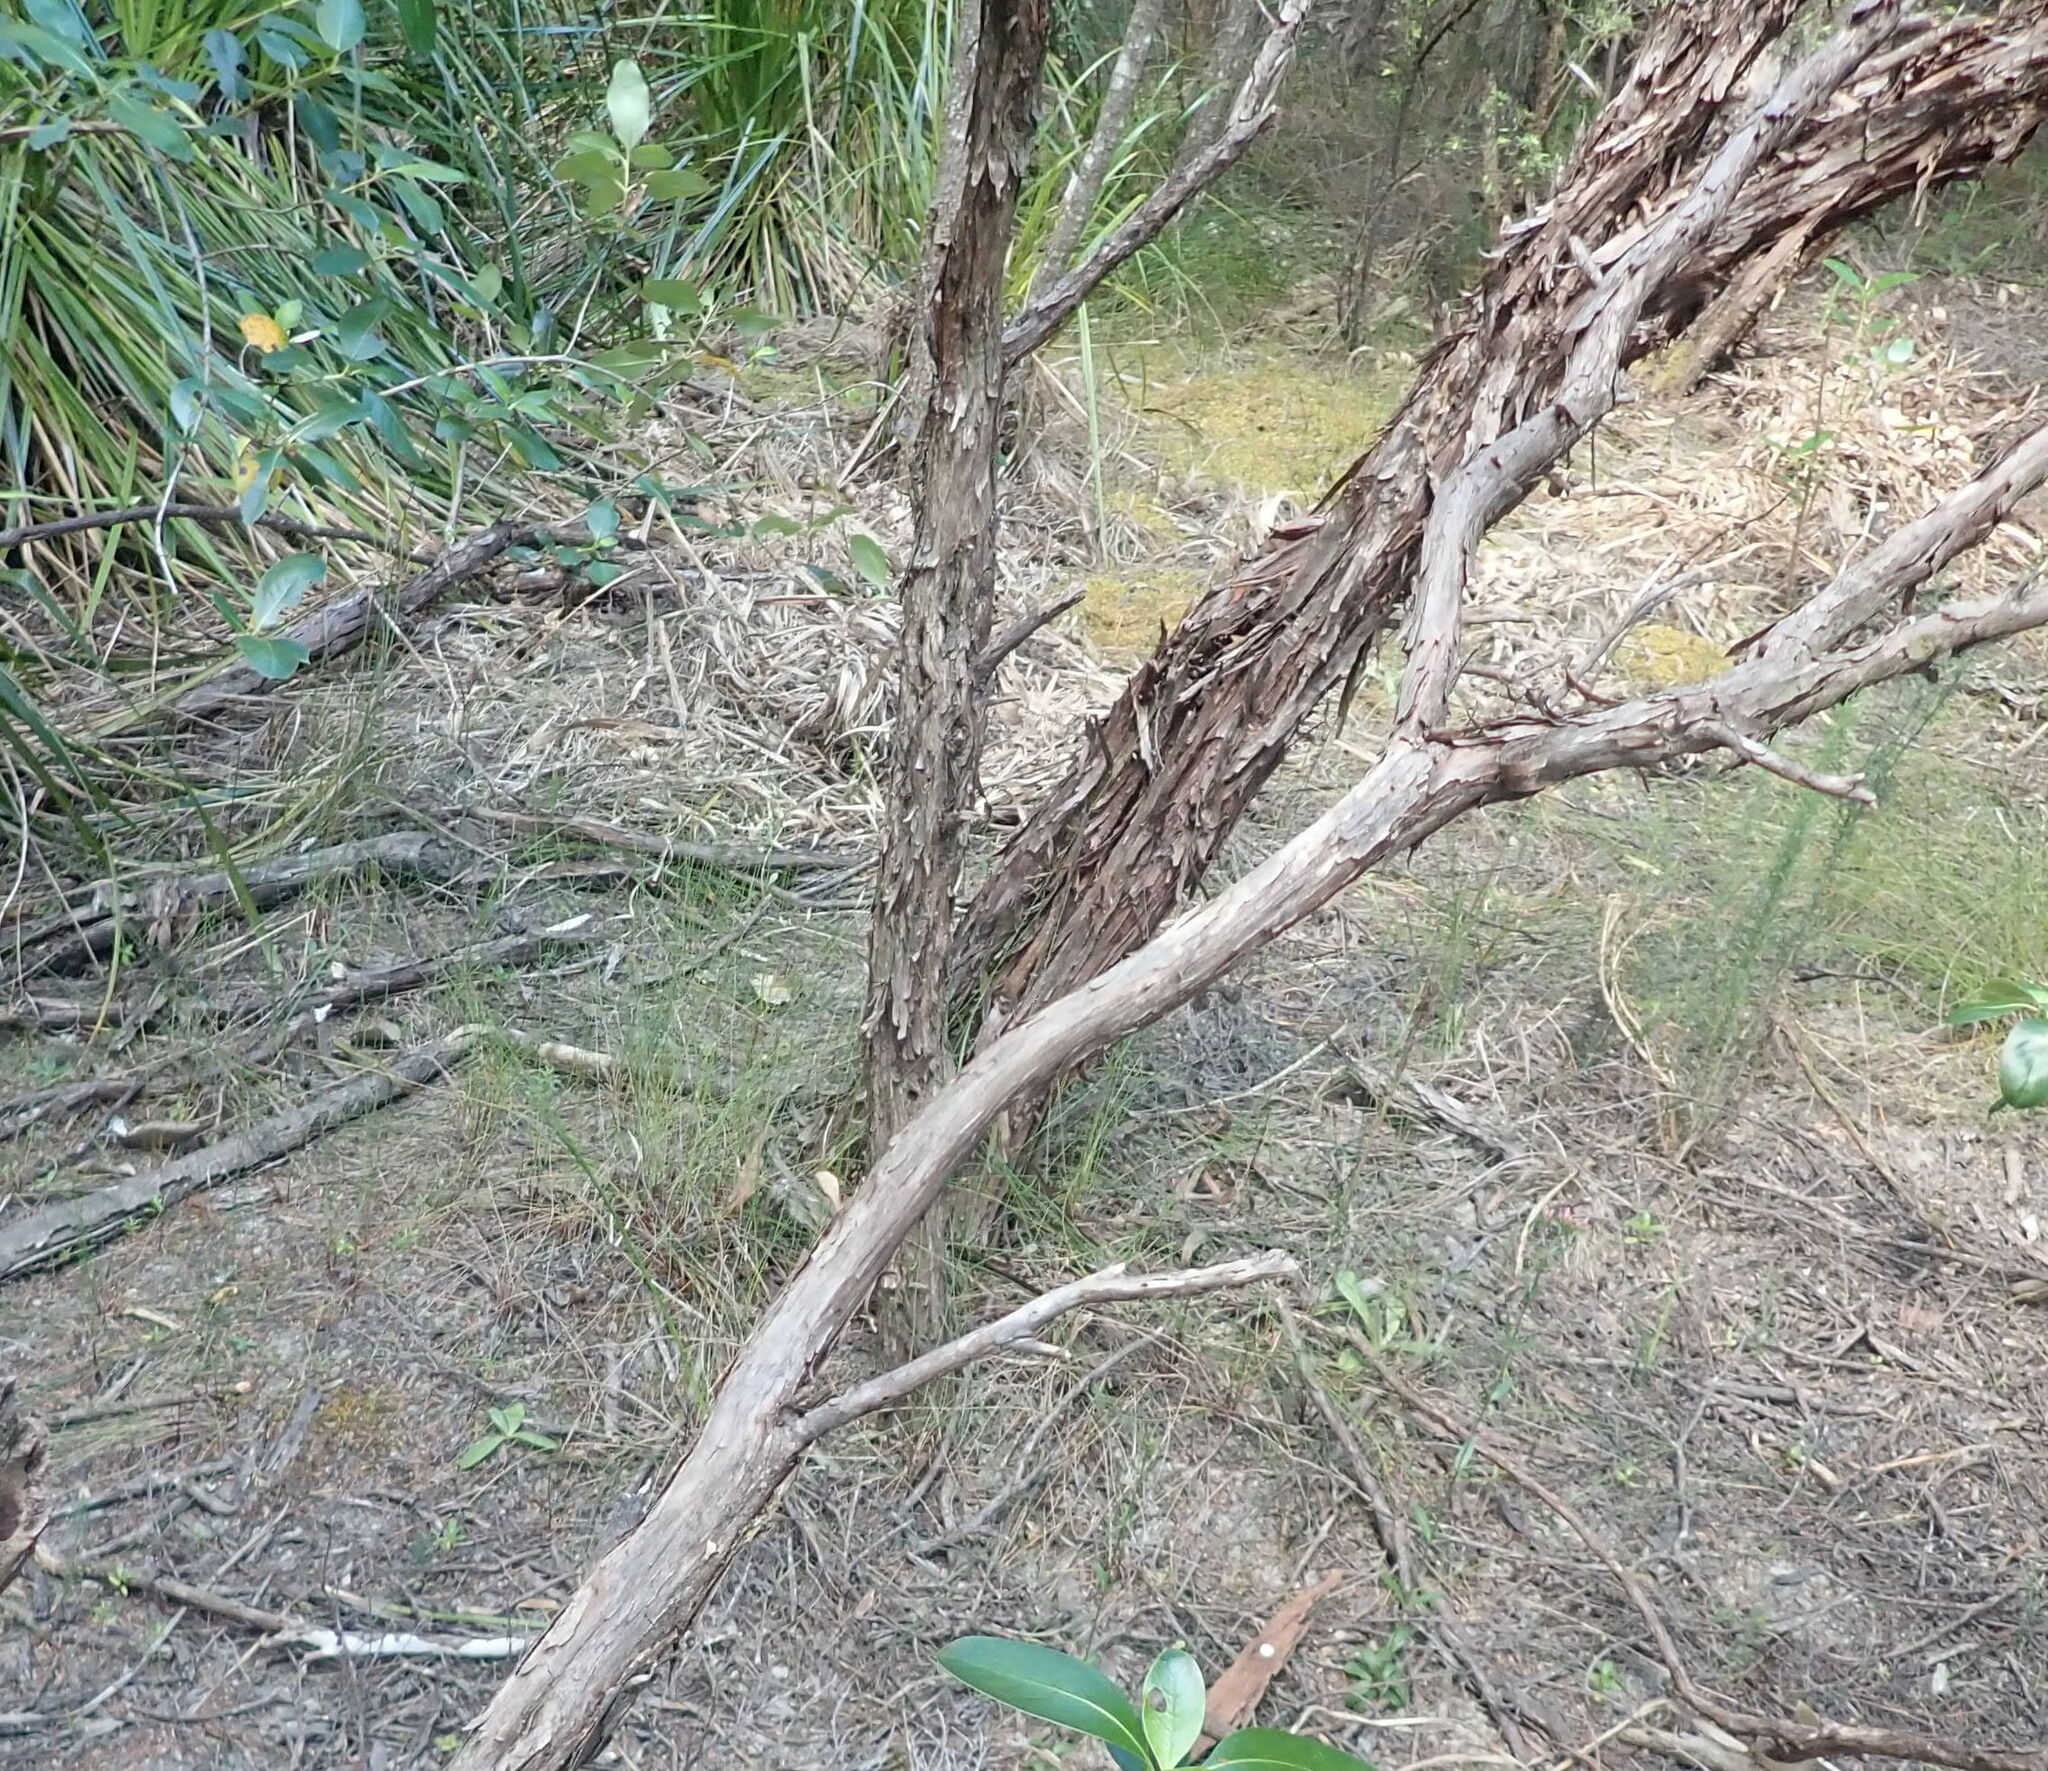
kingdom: Plantae
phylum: Tracheophyta
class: Magnoliopsida
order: Myrtales
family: Myrtaceae
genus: Leptospermum
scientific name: Leptospermum scoparium
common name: Broom tea-tree
